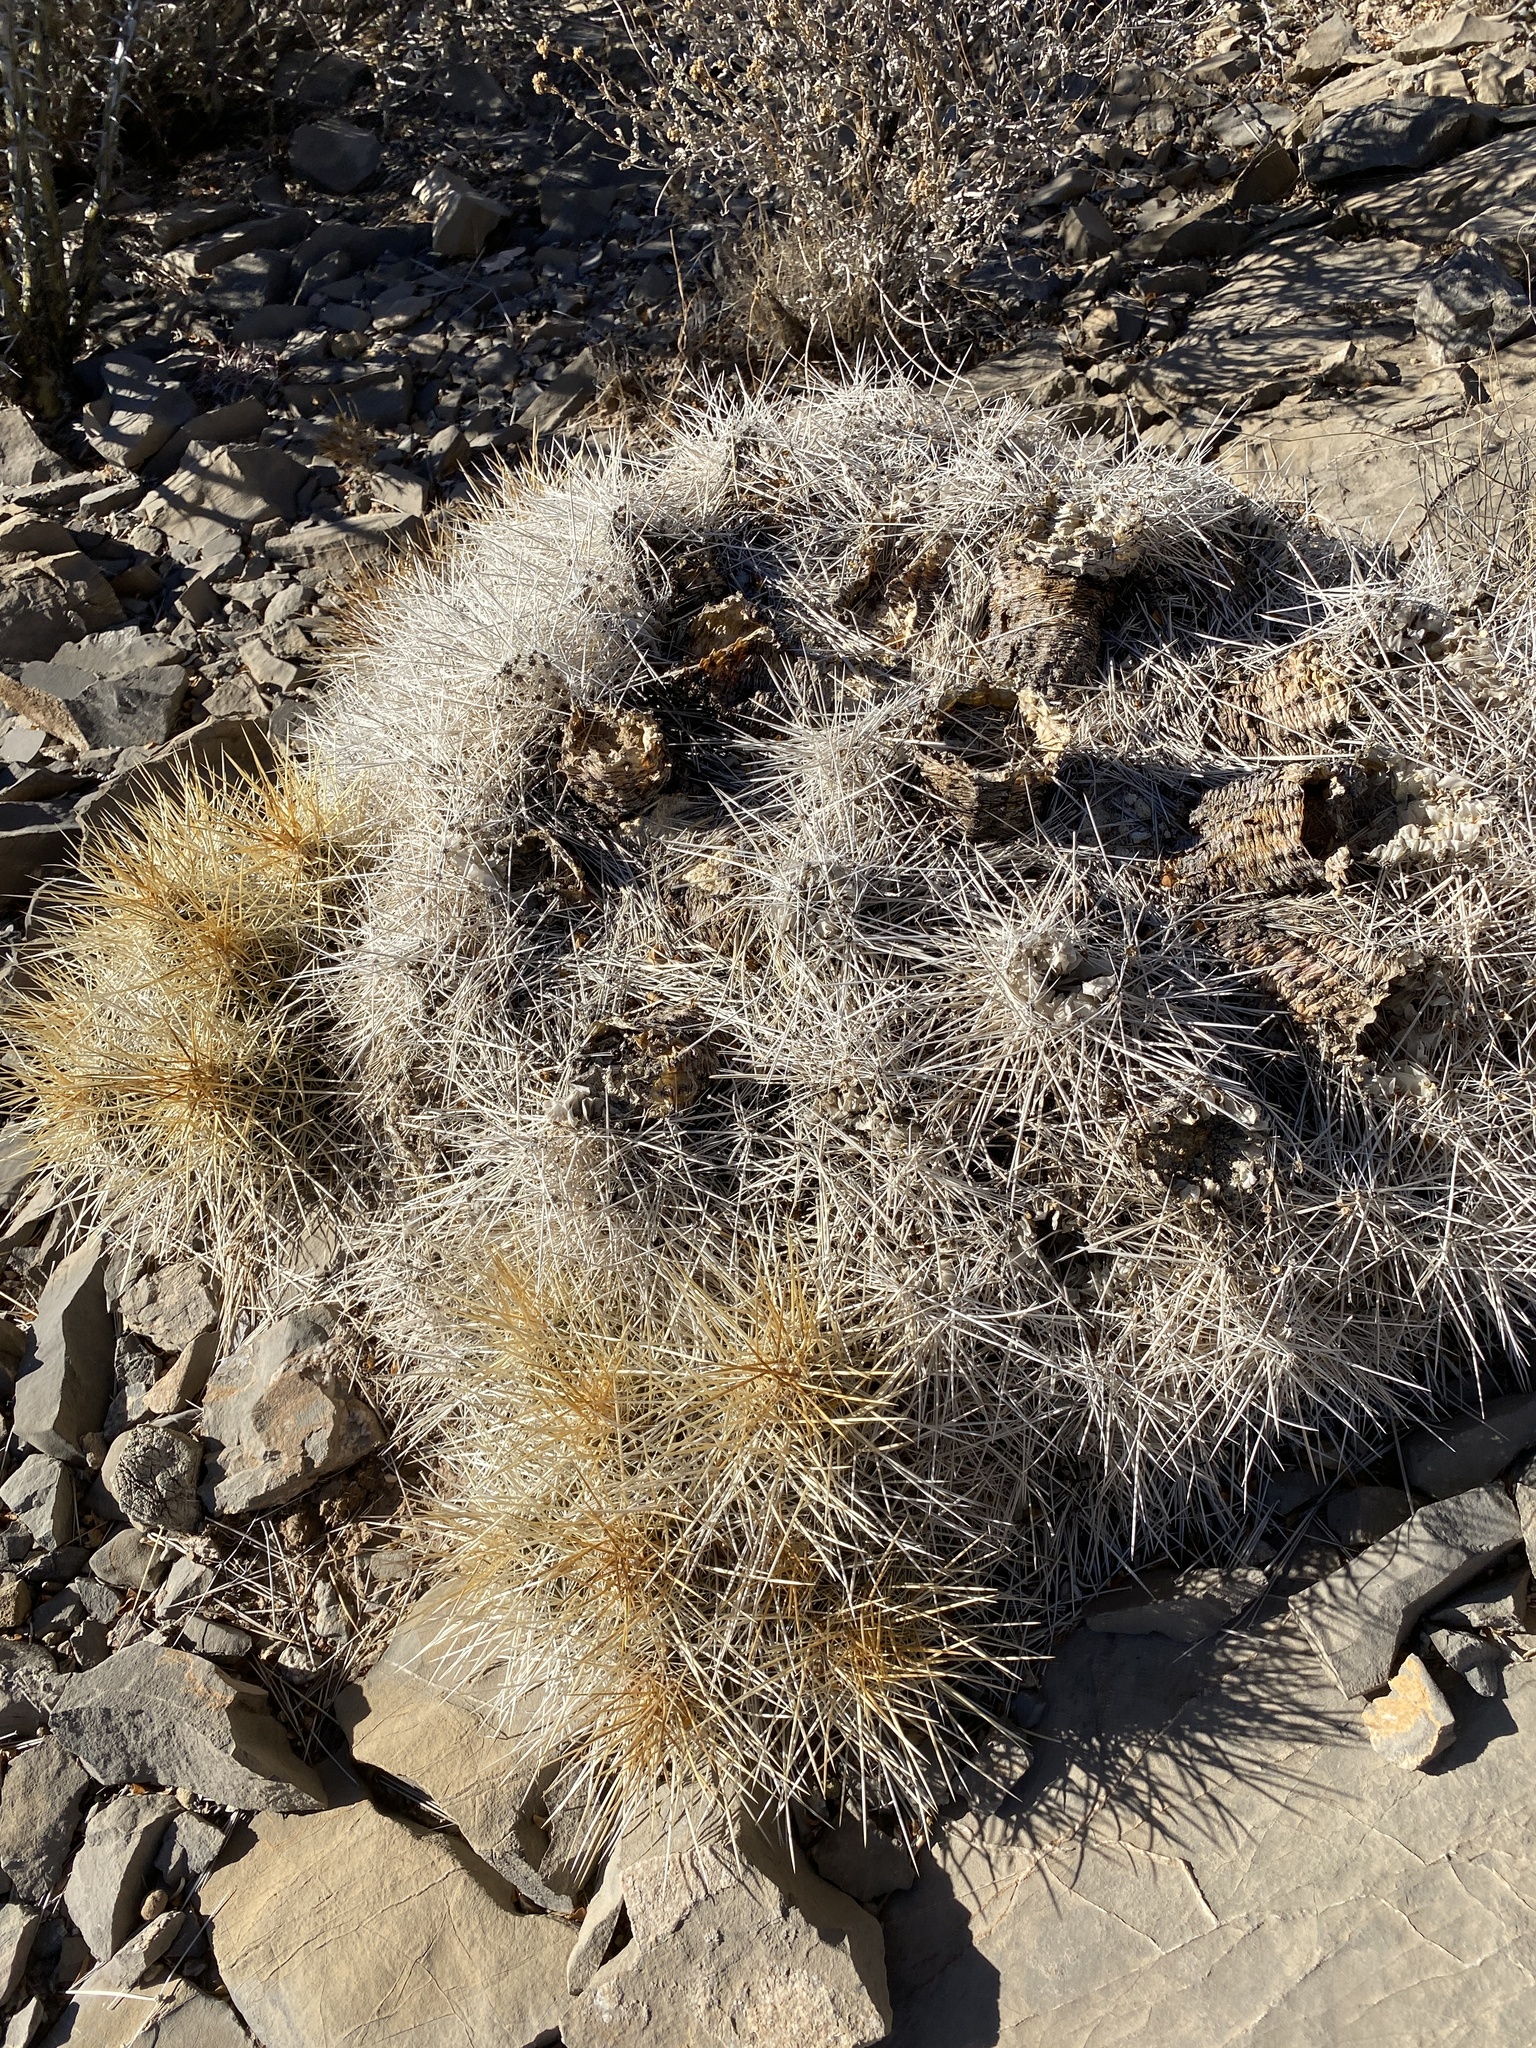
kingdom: Plantae
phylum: Tracheophyta
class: Magnoliopsida
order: Caryophyllales
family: Cactaceae
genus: Echinocereus
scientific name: Echinocereus stramineus
